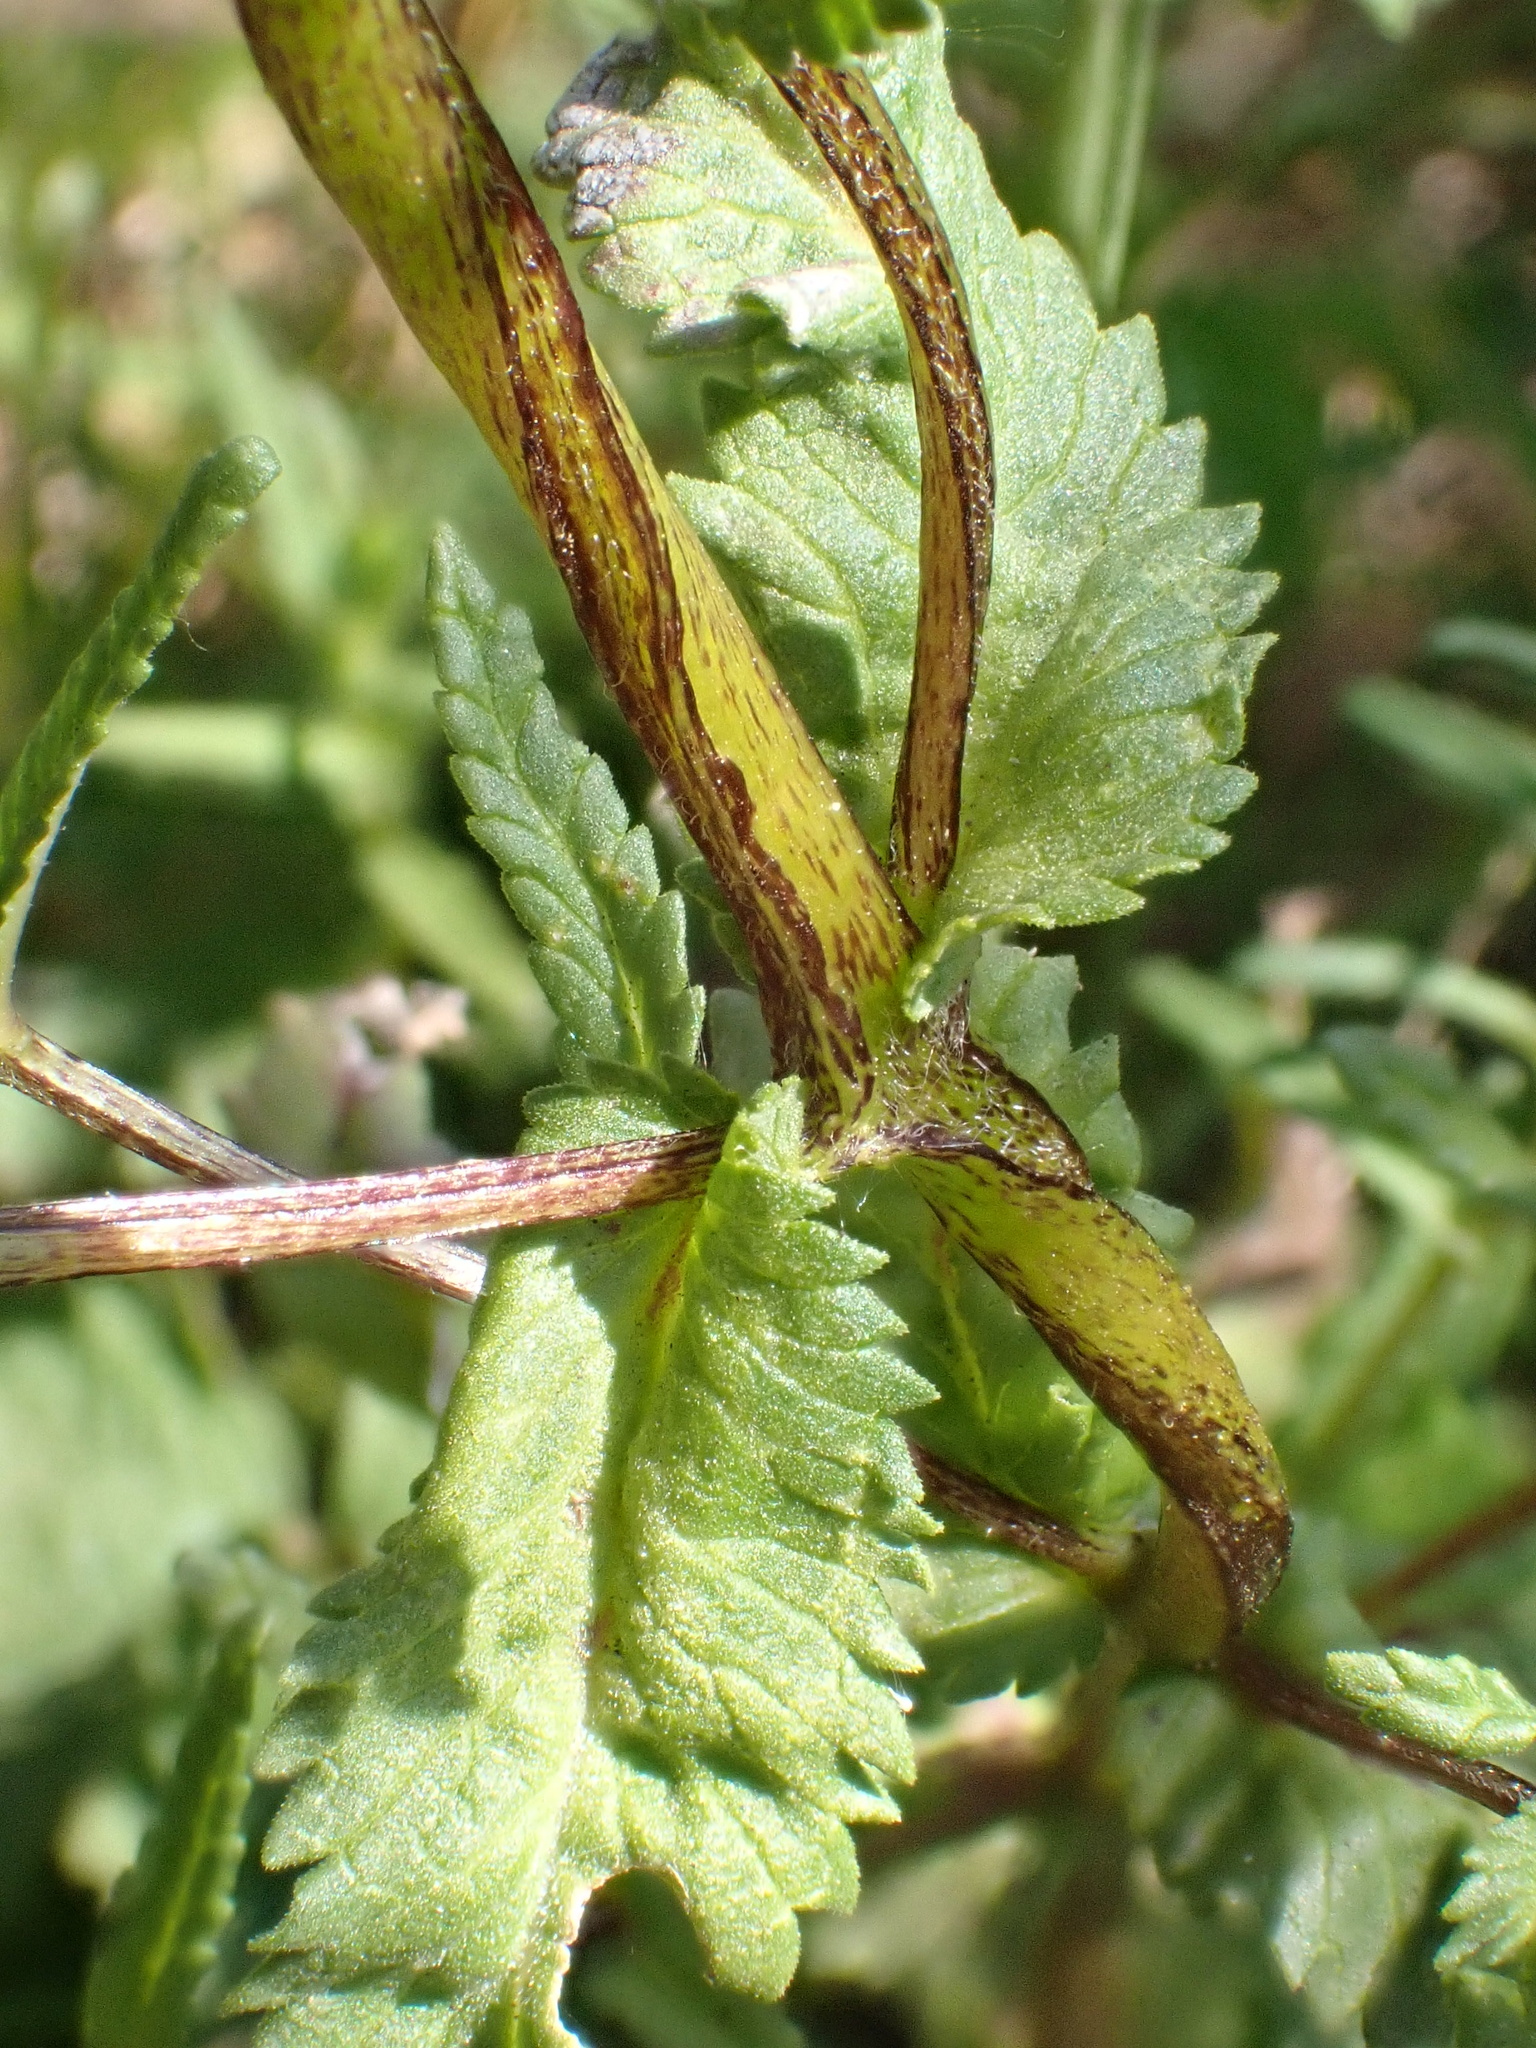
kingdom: Plantae
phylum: Tracheophyta
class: Magnoliopsida
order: Lamiales
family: Orobanchaceae
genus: Rhinanthus
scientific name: Rhinanthus serotinus
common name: Late-flowering yellow rattle
